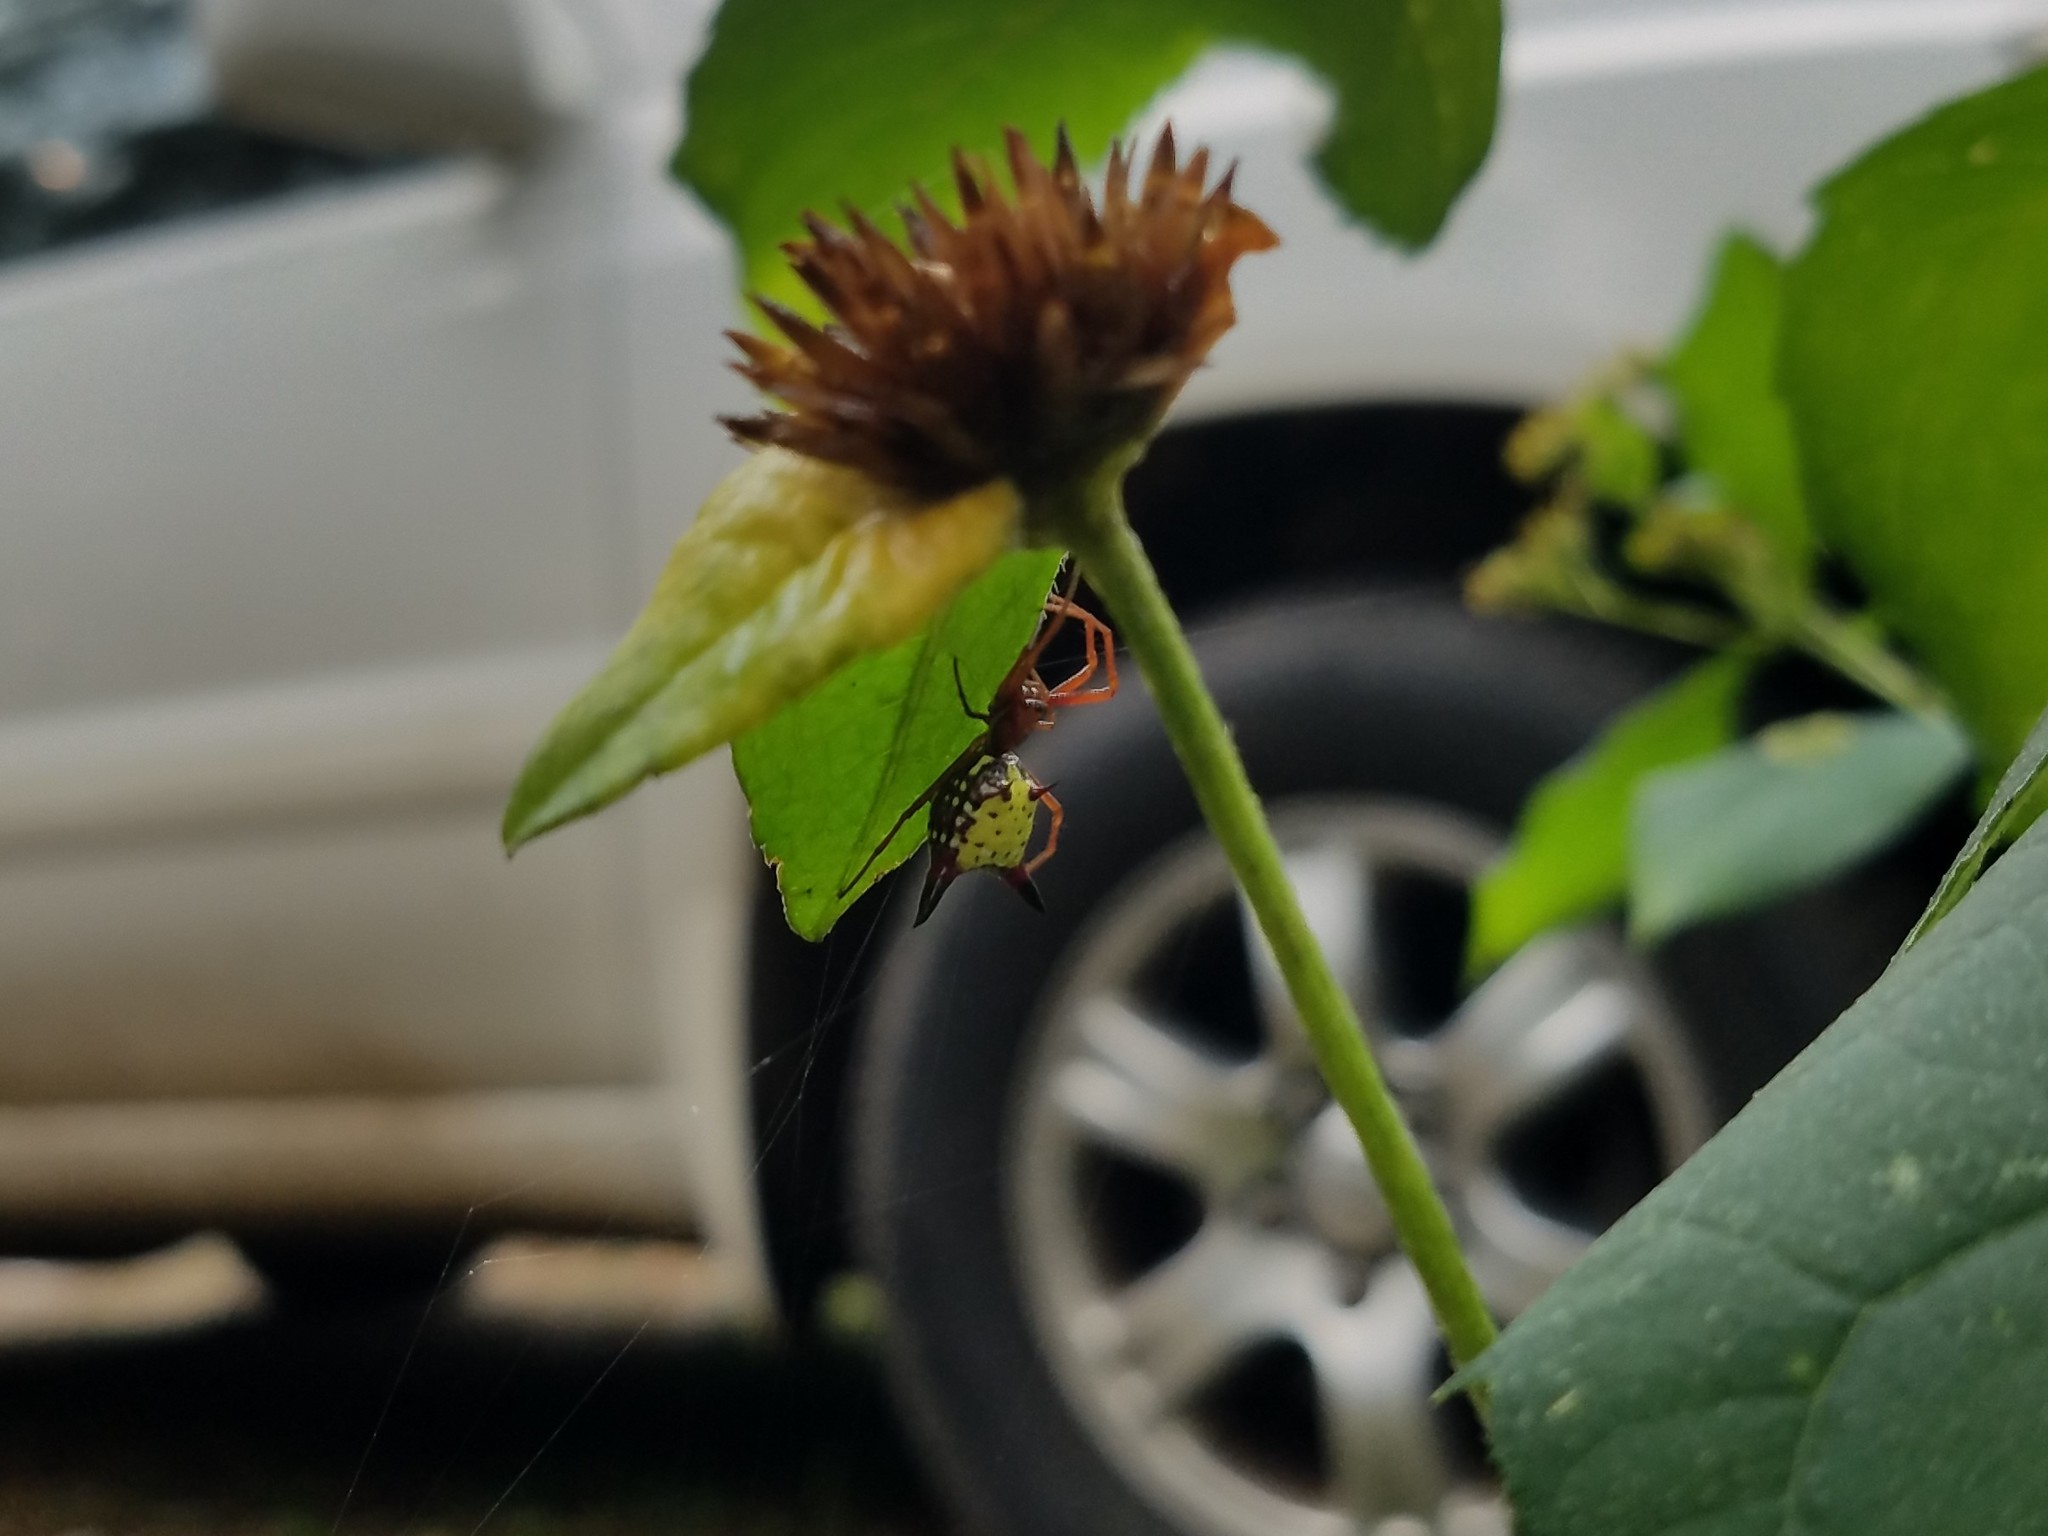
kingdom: Animalia
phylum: Arthropoda
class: Arachnida
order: Araneae
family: Araneidae
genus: Micrathena
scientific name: Micrathena sagittata
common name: Orb weavers
